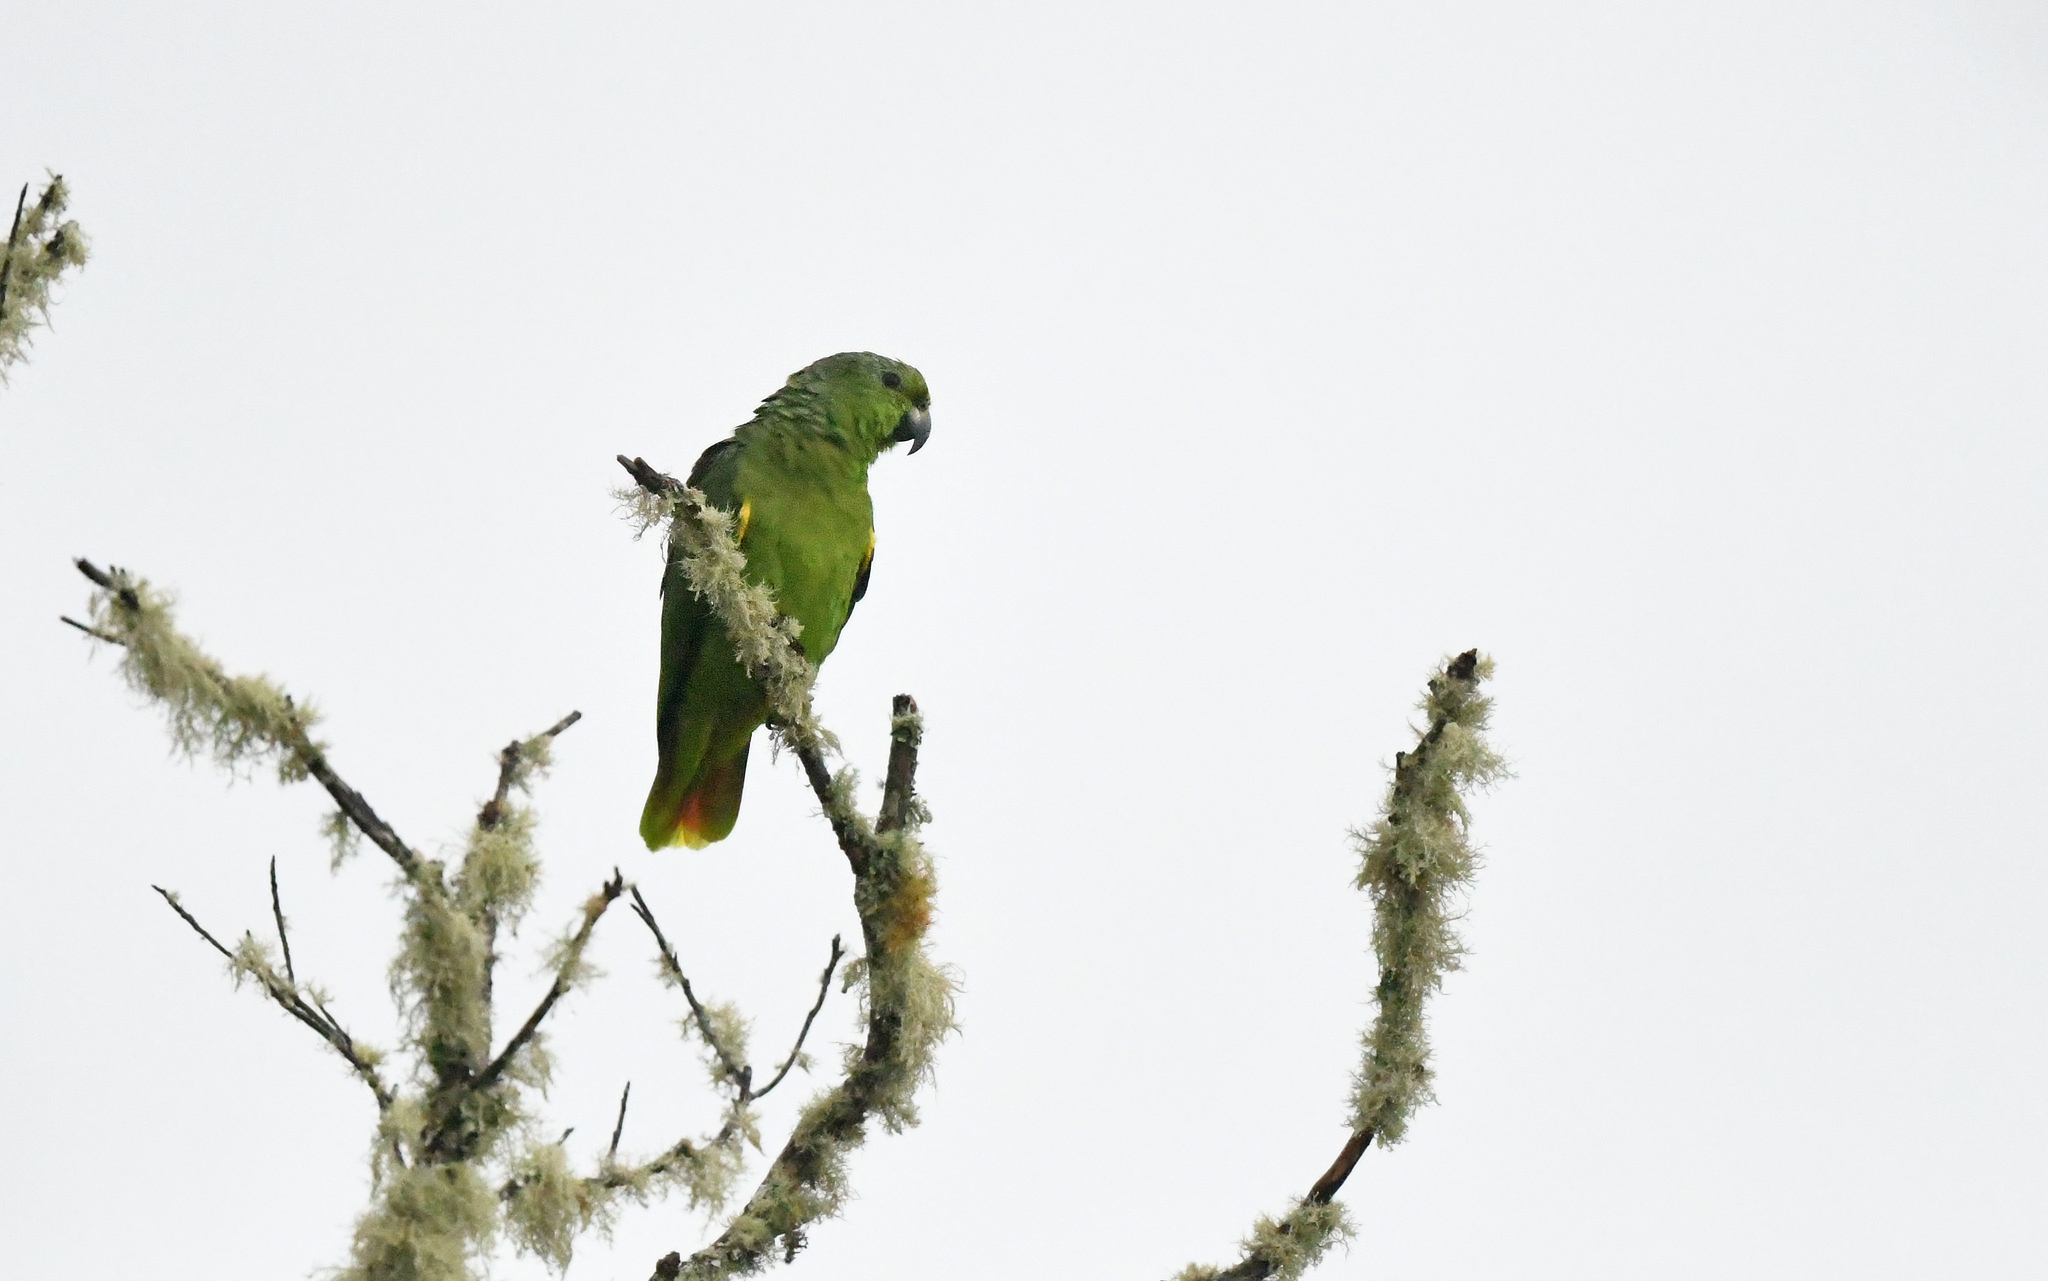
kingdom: Animalia
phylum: Chordata
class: Aves
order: Psittaciformes
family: Psittacidae
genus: Amazona
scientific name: Amazona mercenaria
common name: Scaly-naped amazon
